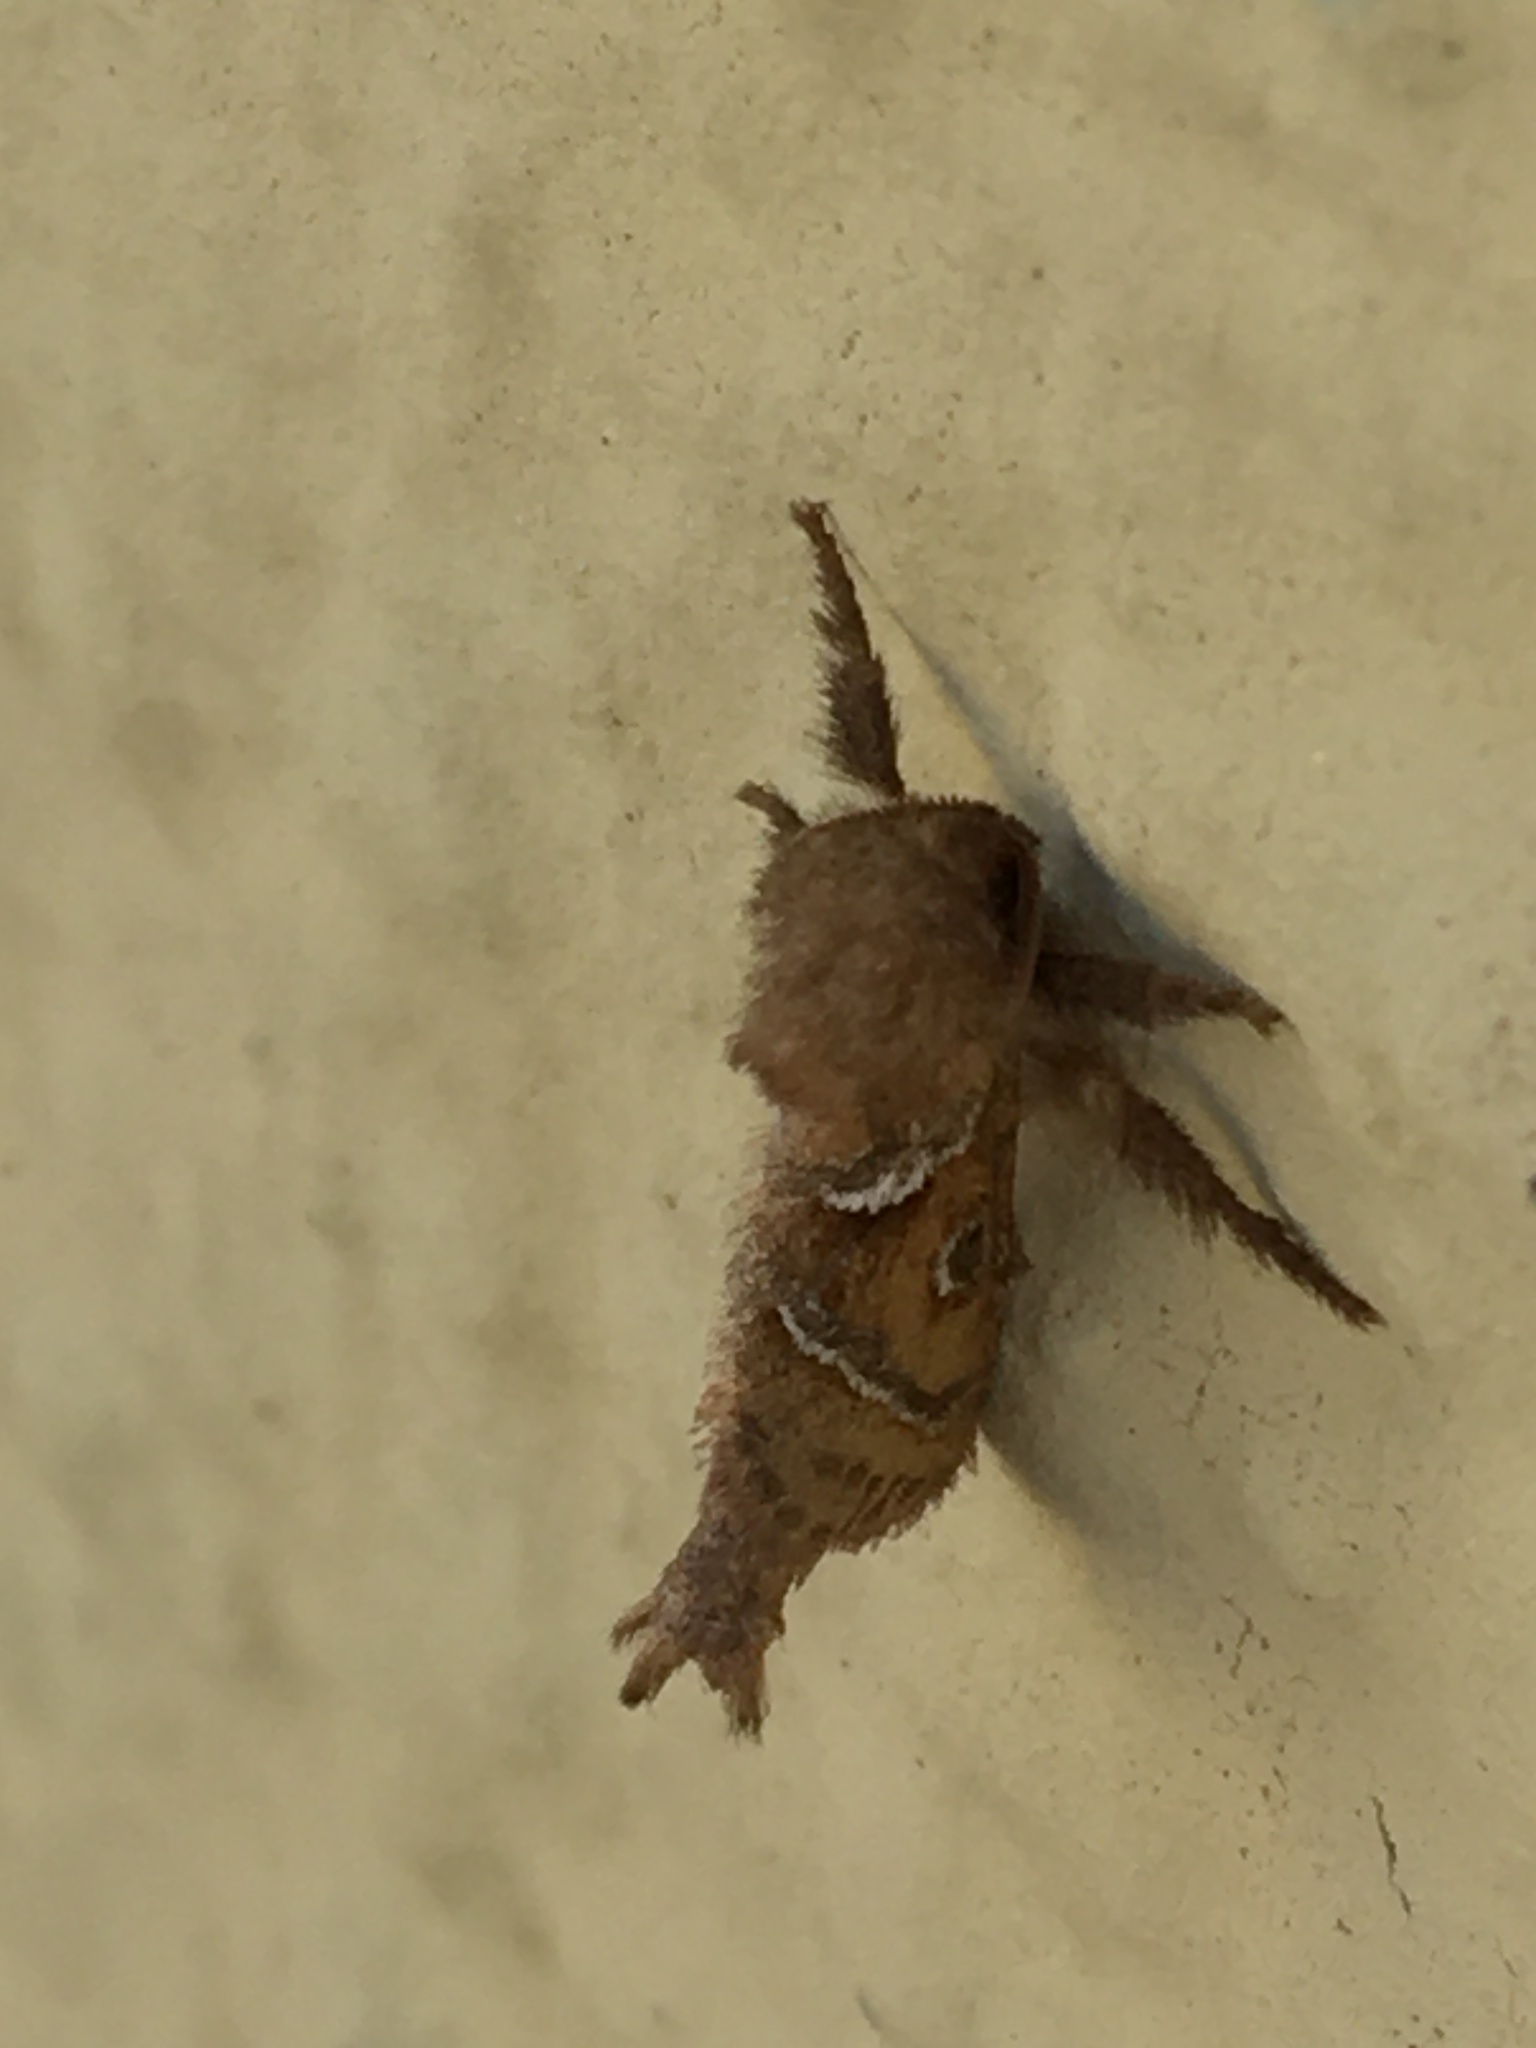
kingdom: Animalia
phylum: Arthropoda
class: Insecta
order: Lepidoptera
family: Hepialidae
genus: Triodia
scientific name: Triodia sylvina
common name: Orange swift
